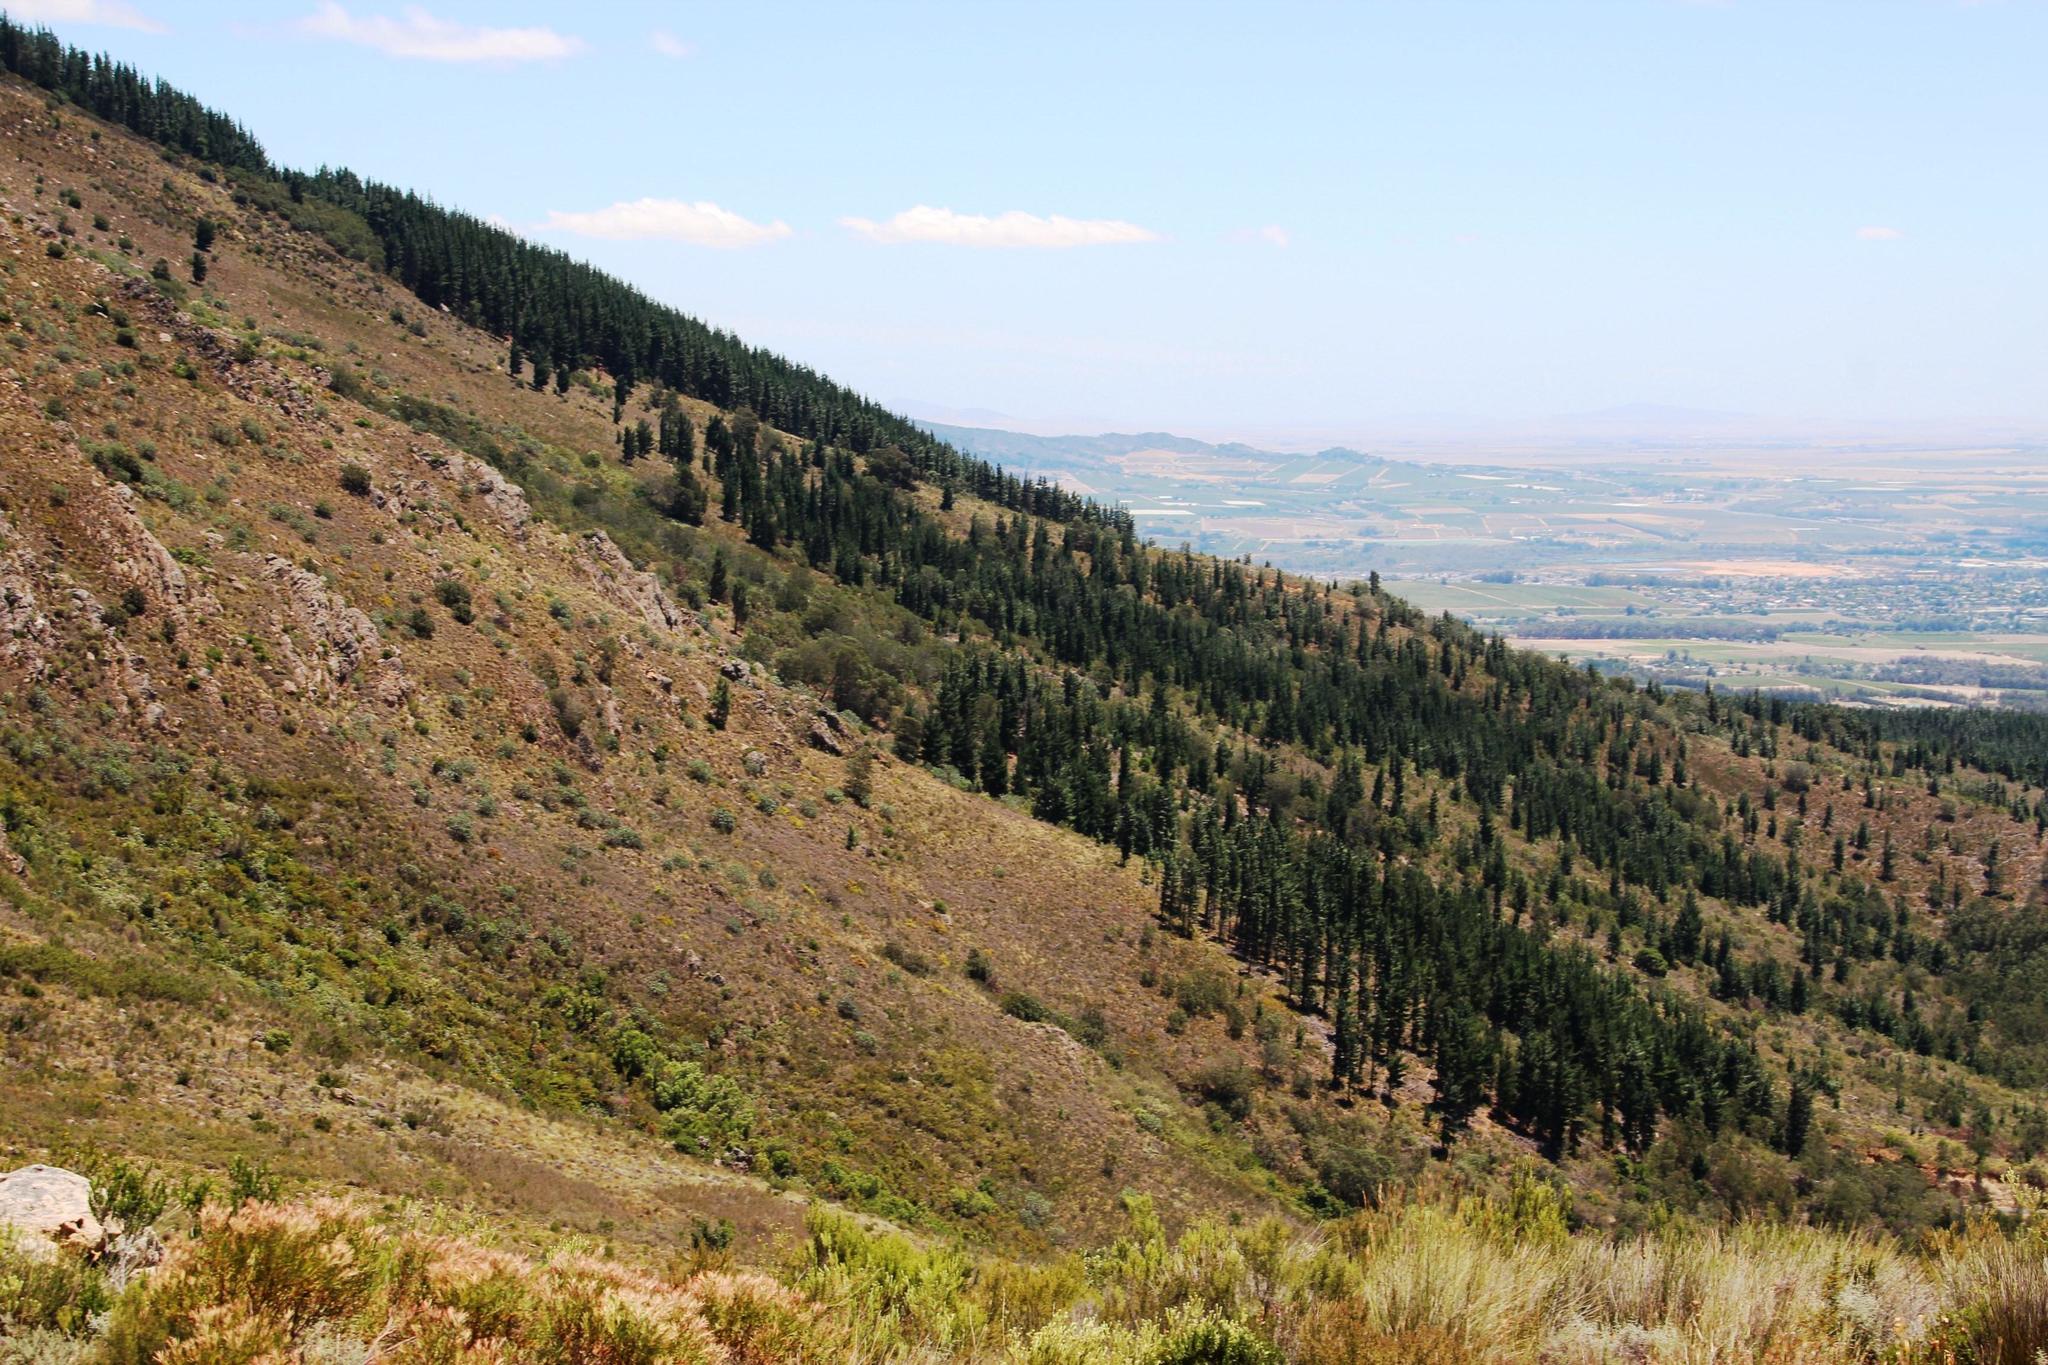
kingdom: Plantae
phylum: Tracheophyta
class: Pinopsida
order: Pinales
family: Pinaceae
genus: Pinus
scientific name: Pinus radiata
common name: Monterey pine
